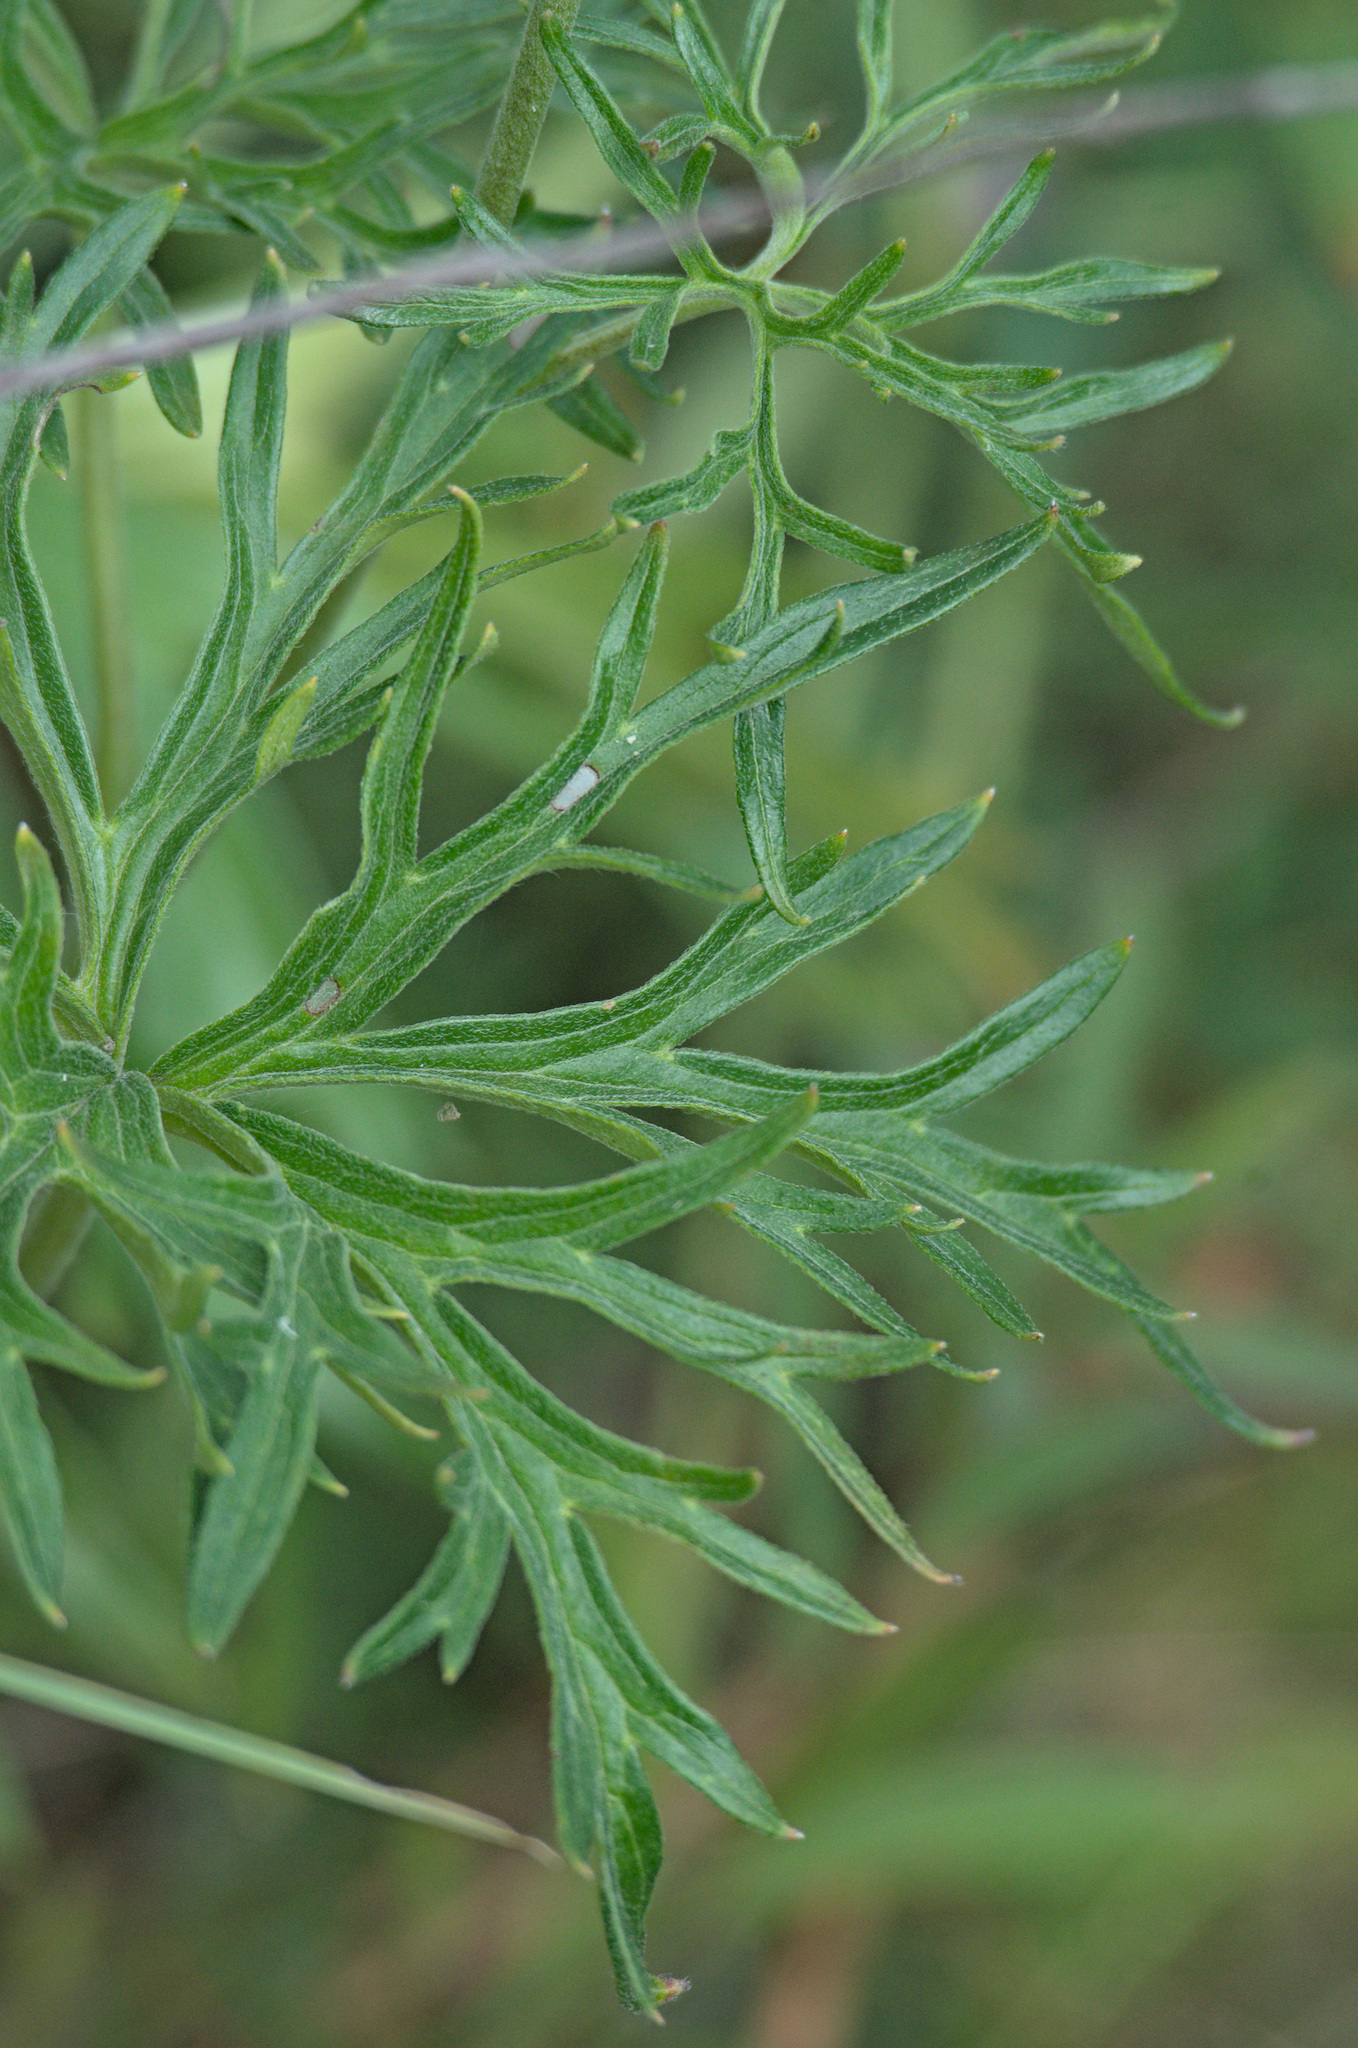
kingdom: Plantae
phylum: Tracheophyta
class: Magnoliopsida
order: Ranunculales
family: Ranunculaceae
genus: Aconitum
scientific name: Aconitum barbatum
